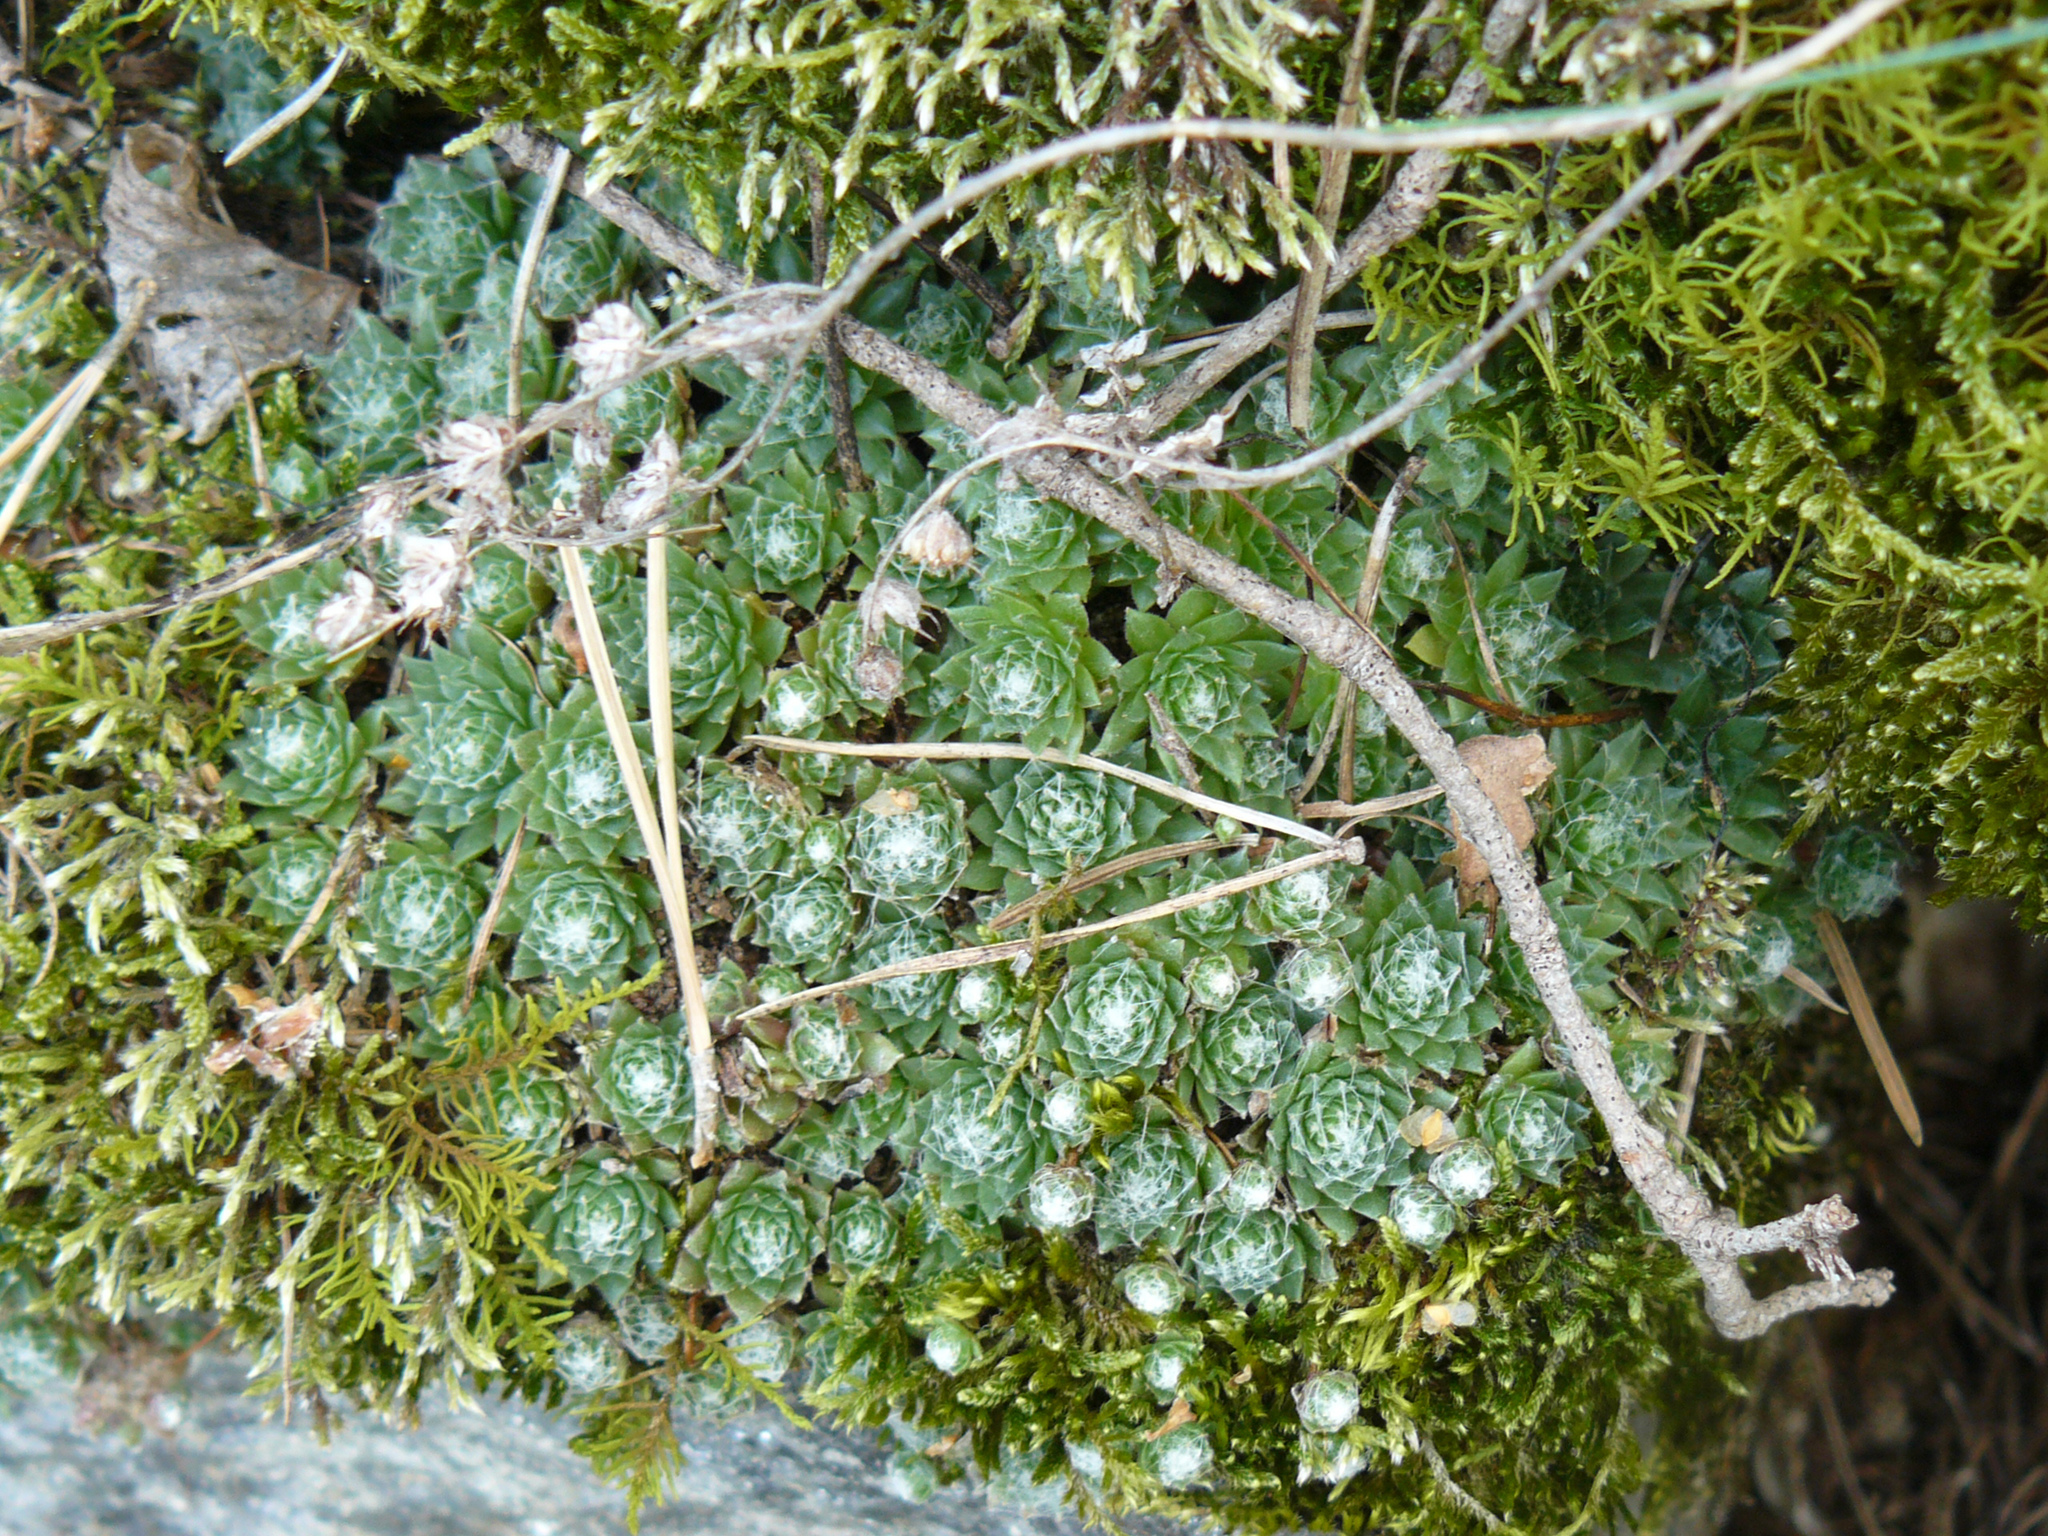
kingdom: Plantae
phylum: Tracheophyta
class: Magnoliopsida
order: Saxifragales
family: Crassulaceae
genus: Sempervivum
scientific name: Sempervivum arachnoideum
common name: Cobweb house-leek
